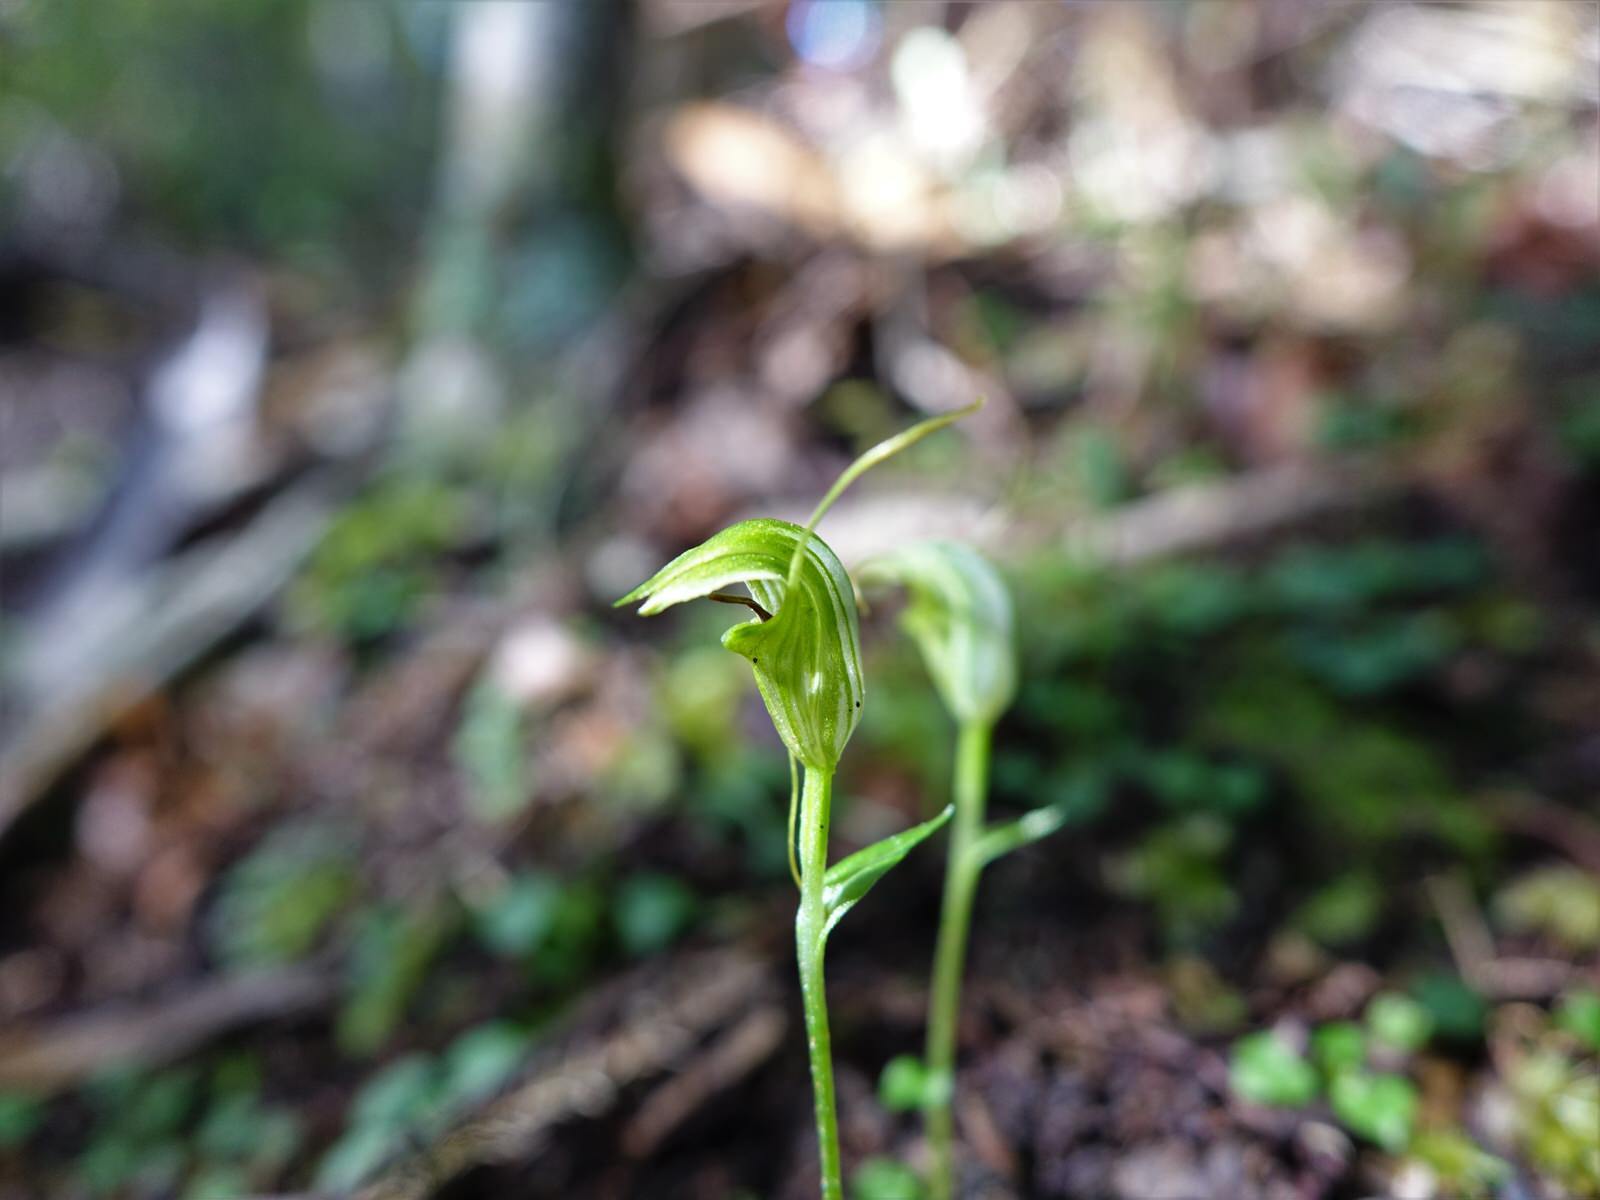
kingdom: Plantae
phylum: Tracheophyta
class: Liliopsida
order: Asparagales
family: Orchidaceae
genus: Pterostylis
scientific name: Pterostylis trullifolia
